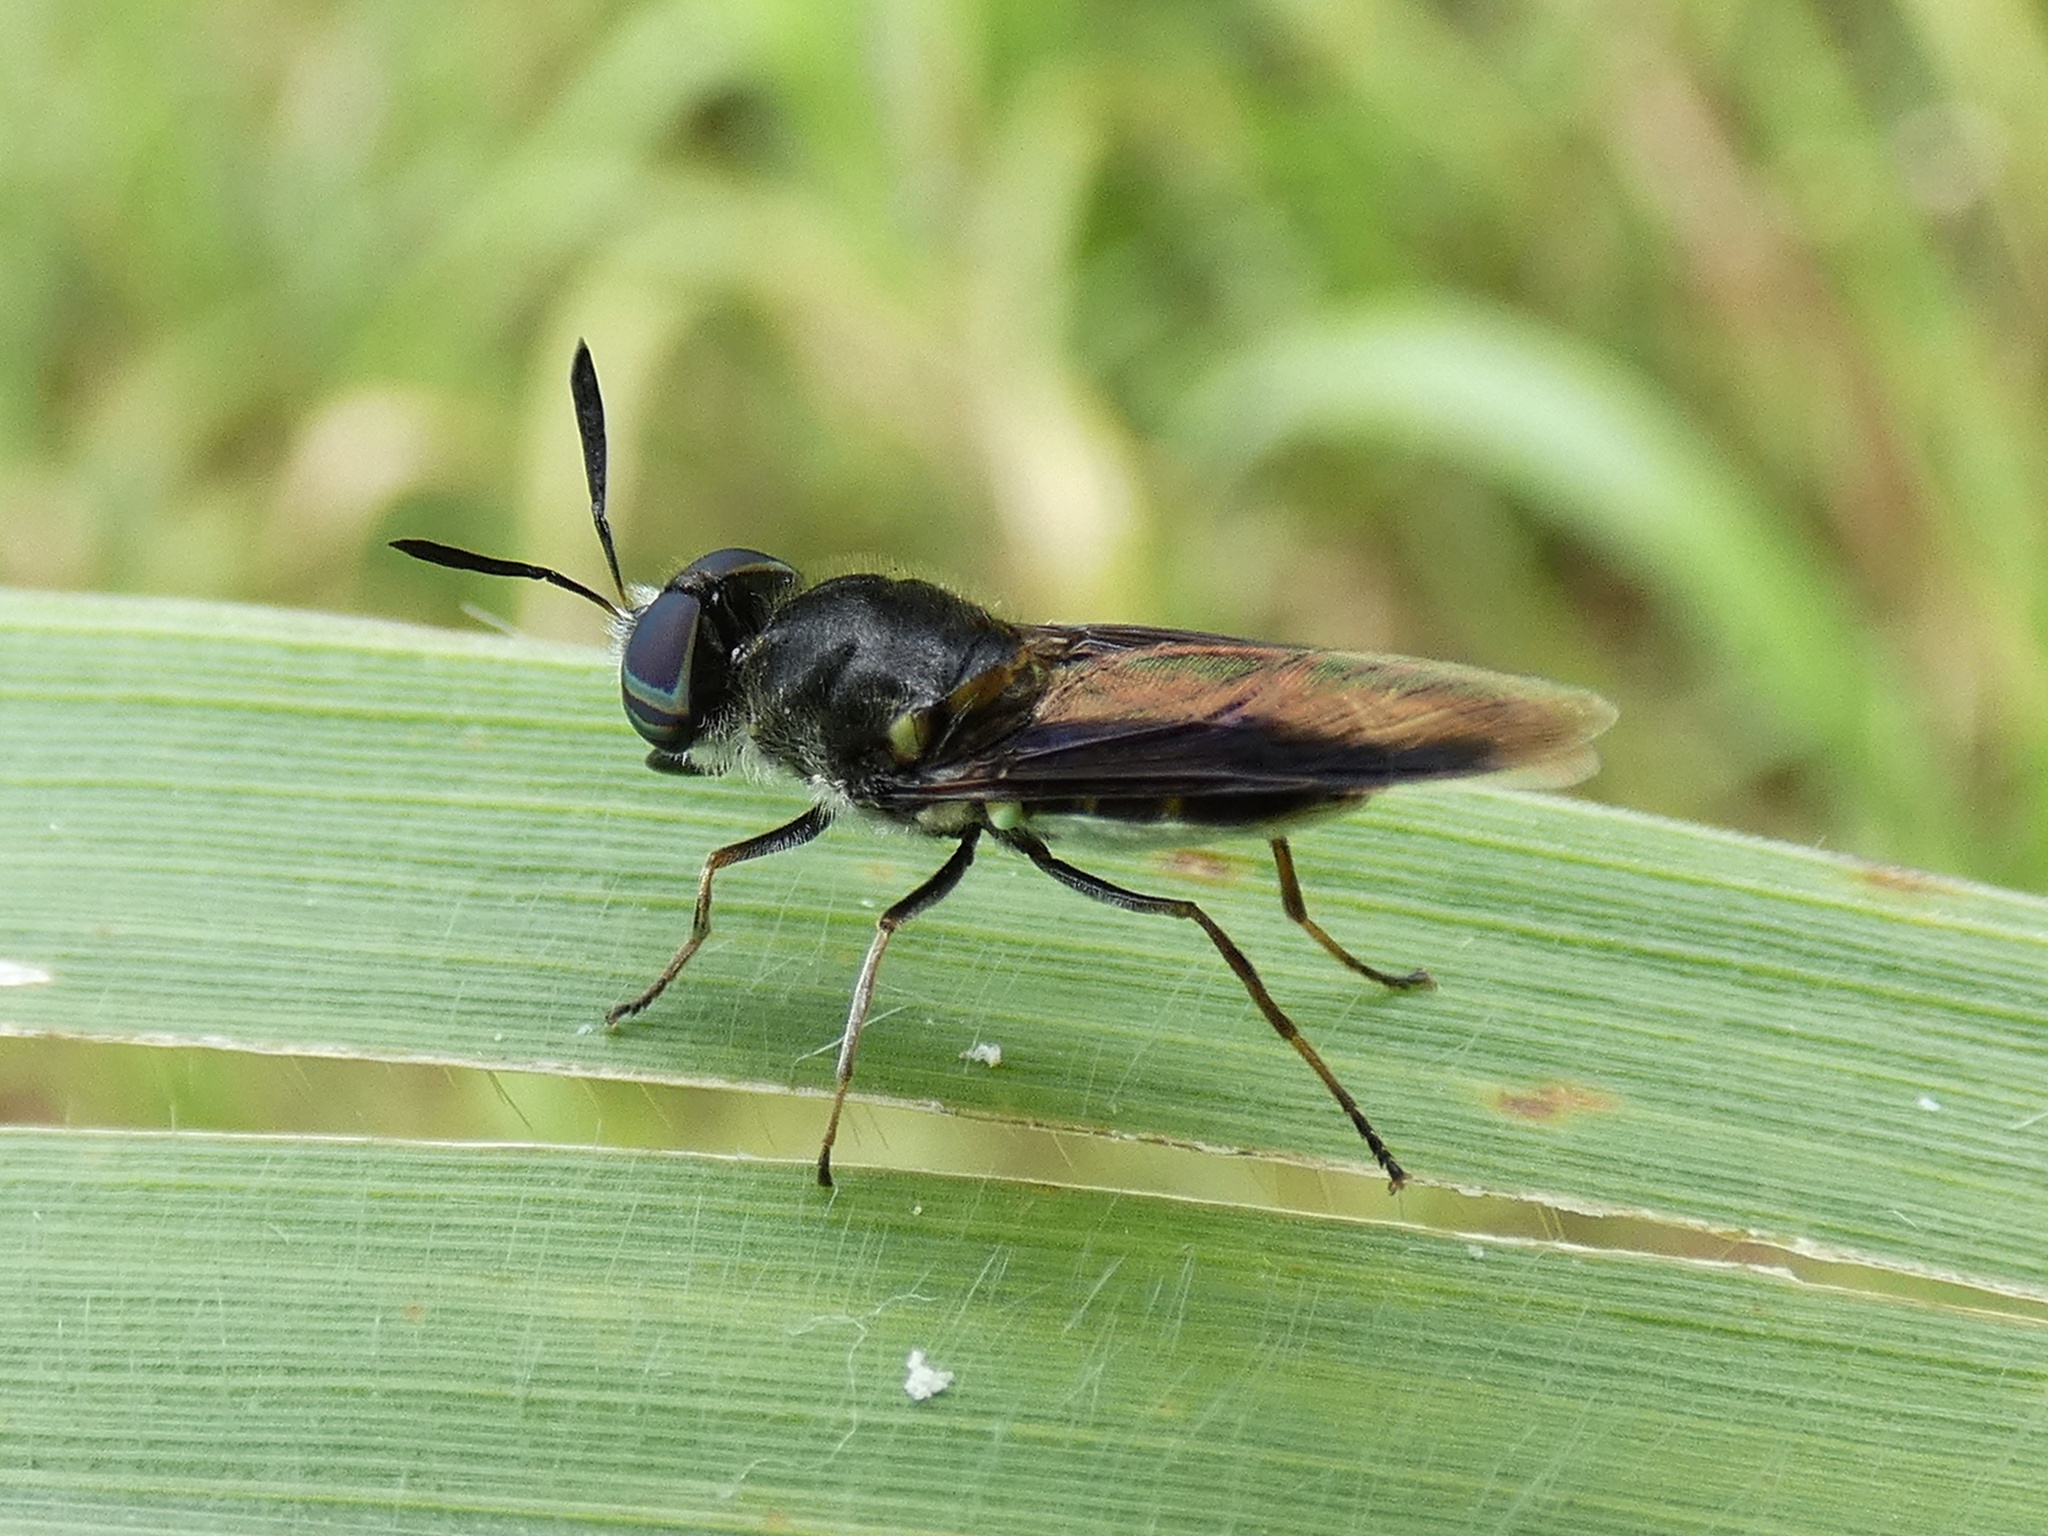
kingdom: Animalia
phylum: Arthropoda
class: Insecta
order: Diptera
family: Stratiomyidae
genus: Hoplitimyia
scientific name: Hoplitimyia subalba
